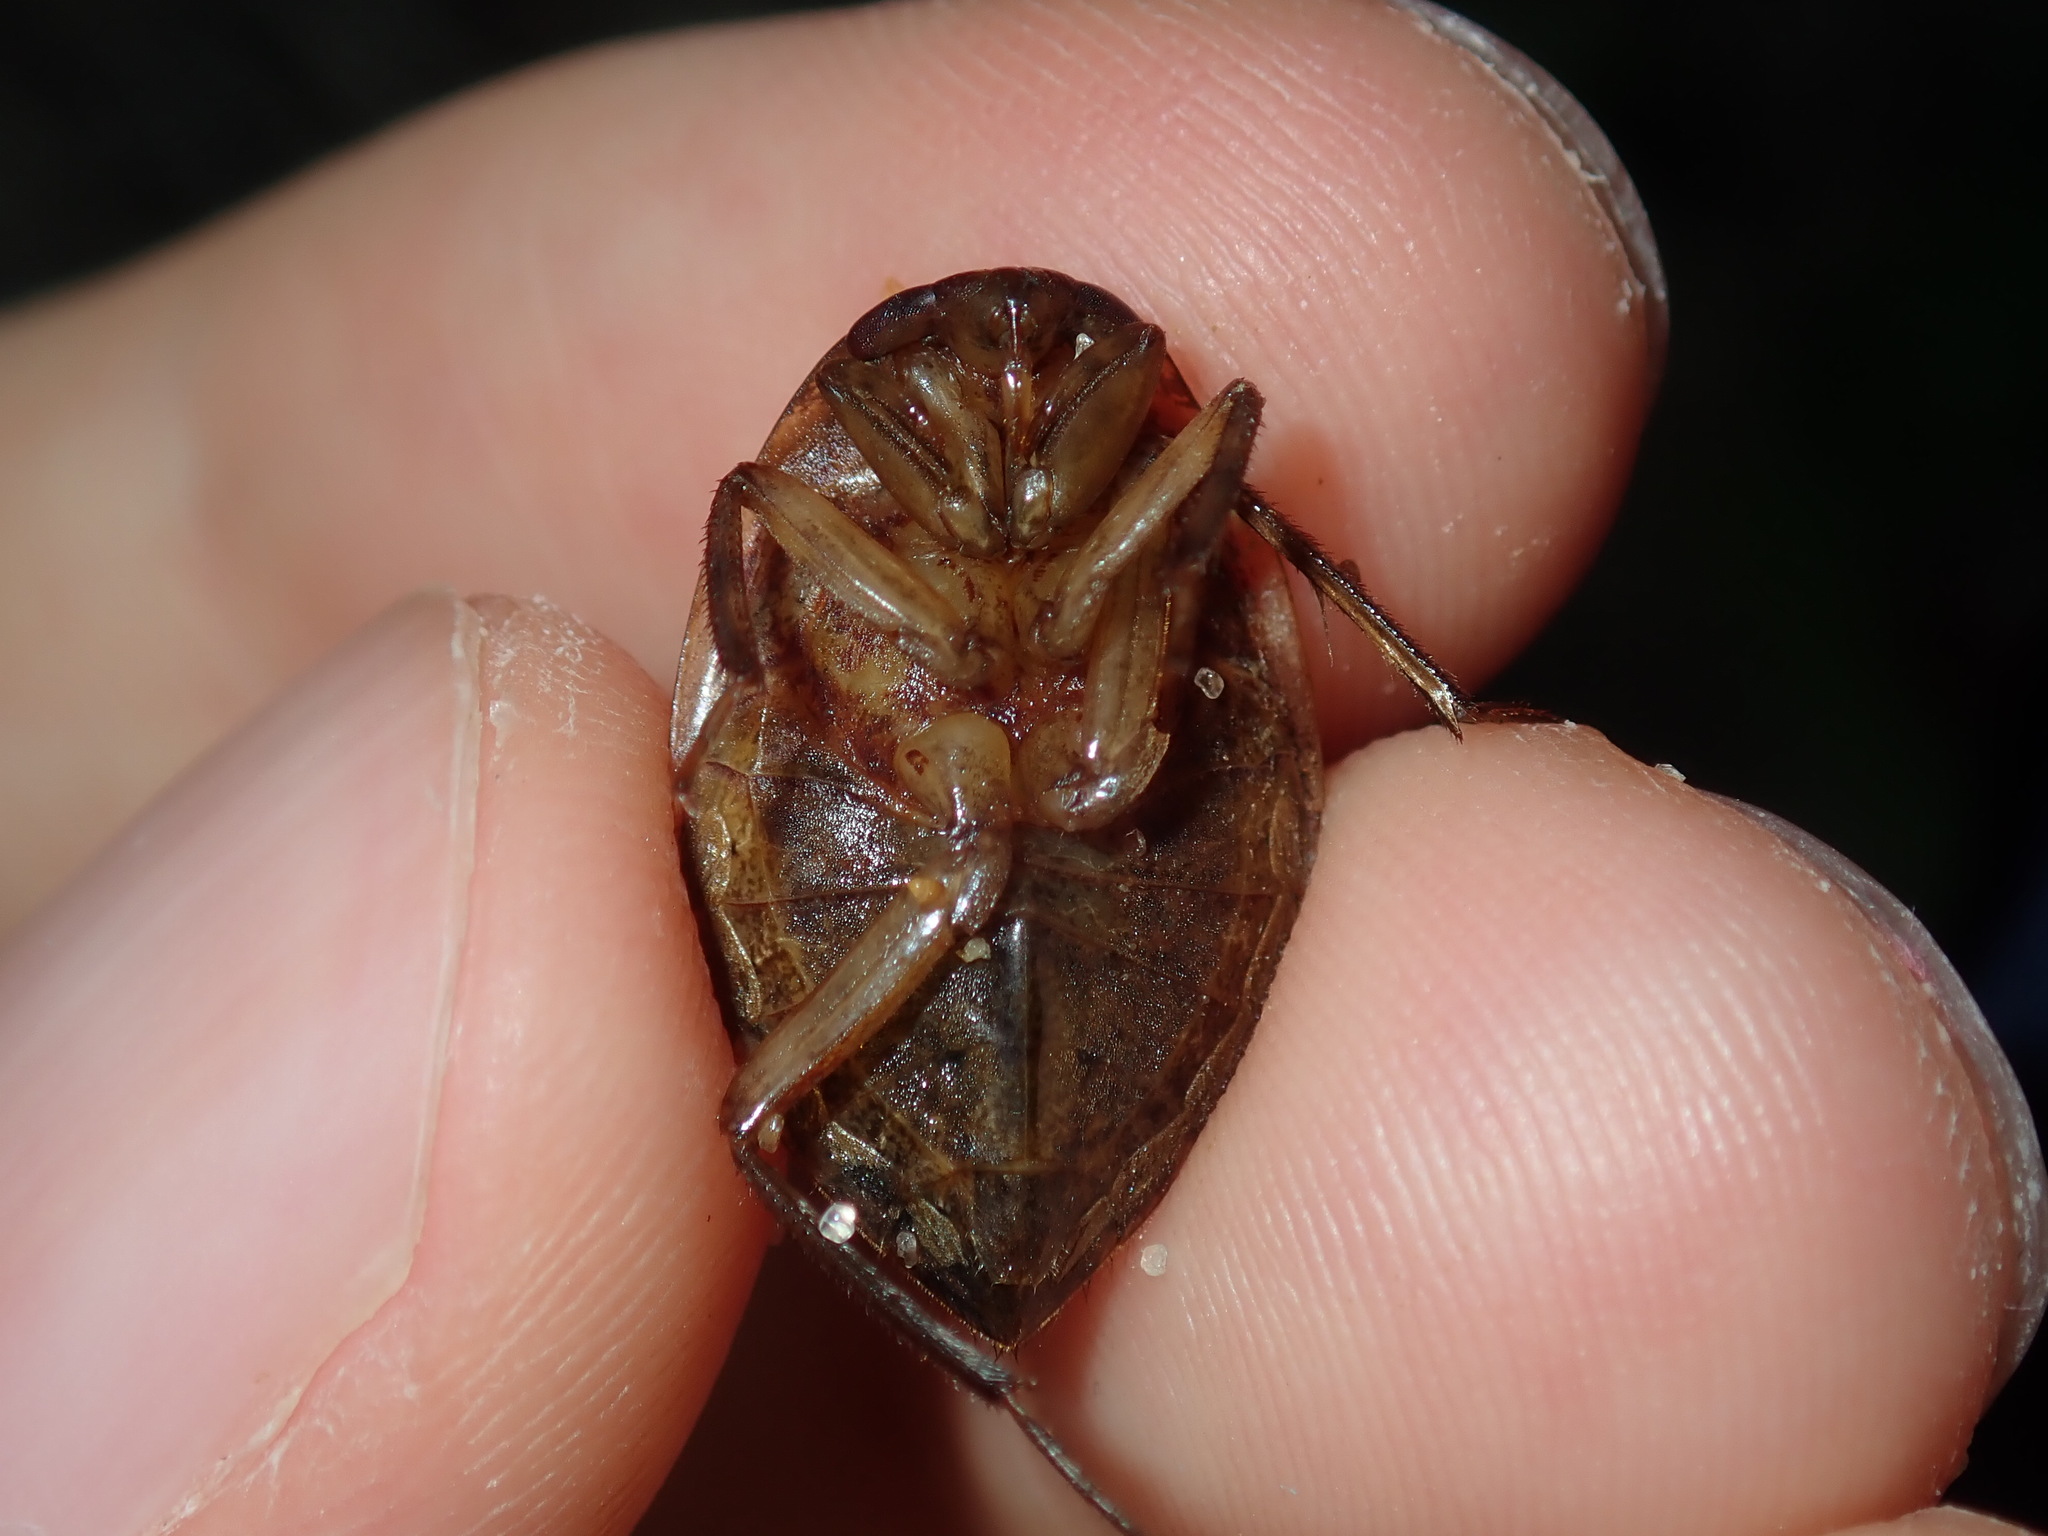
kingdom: Animalia
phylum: Arthropoda
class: Insecta
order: Hemiptera
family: Belostomatidae
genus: Diplonychus
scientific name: Diplonychus eques
